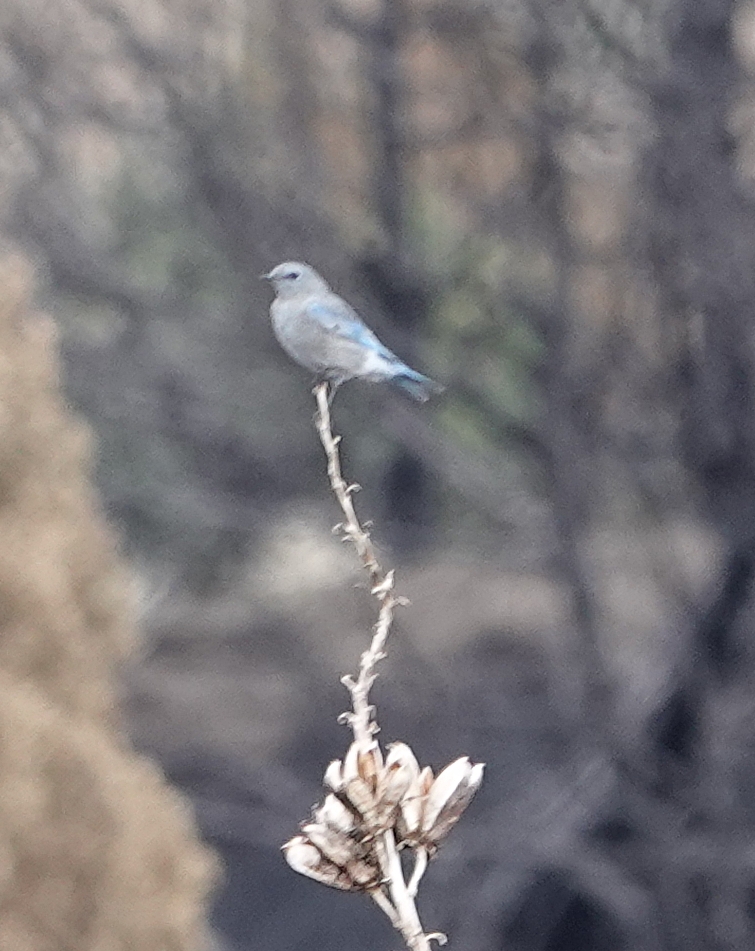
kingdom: Animalia
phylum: Chordata
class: Aves
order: Passeriformes
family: Turdidae
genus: Sialia
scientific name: Sialia currucoides
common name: Mountain bluebird
